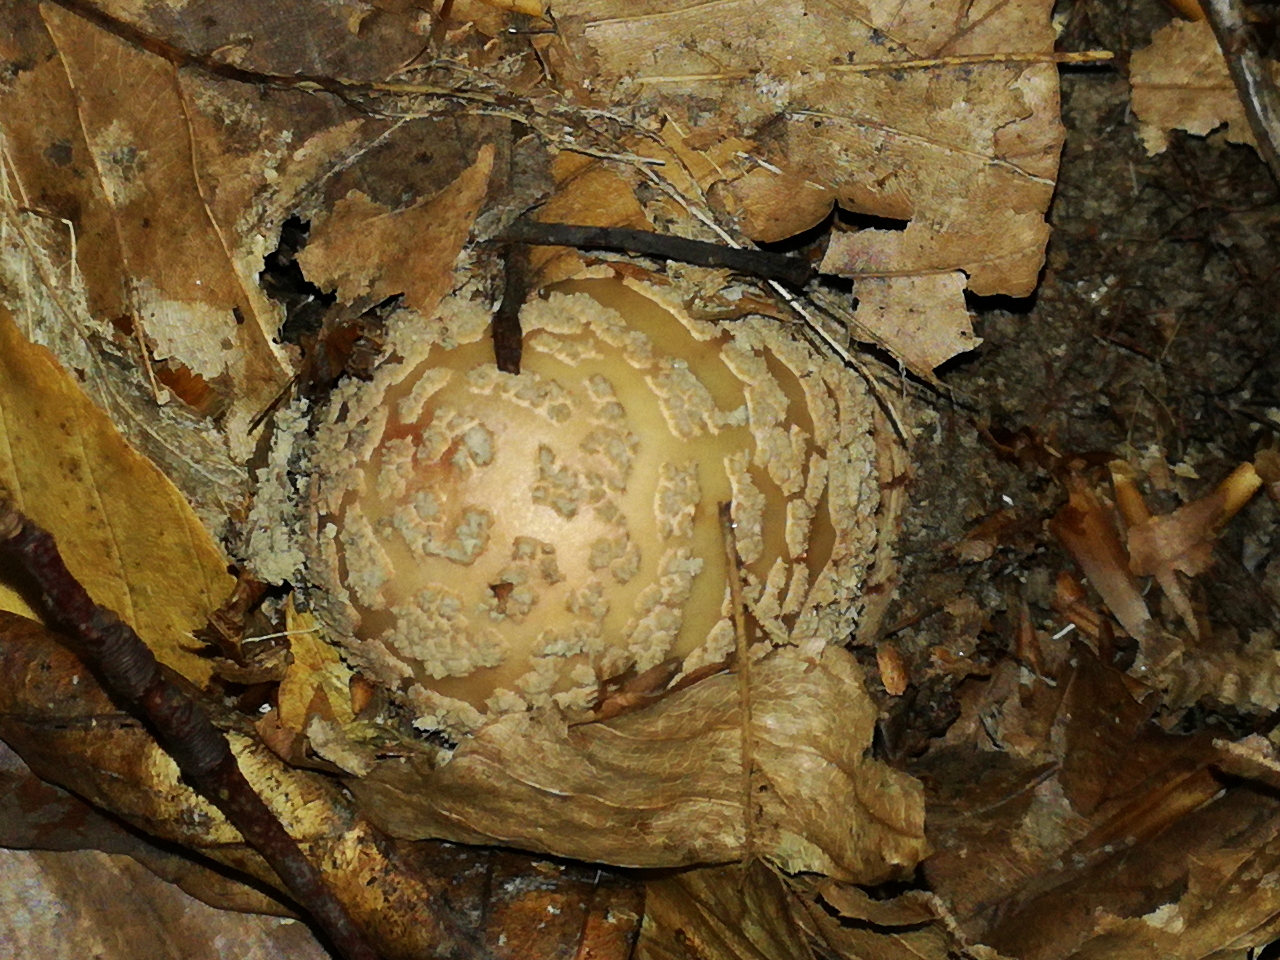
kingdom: Fungi
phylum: Basidiomycota
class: Agaricomycetes
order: Agaricales
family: Amanitaceae
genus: Amanita
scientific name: Amanita rubescens
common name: Blusher
